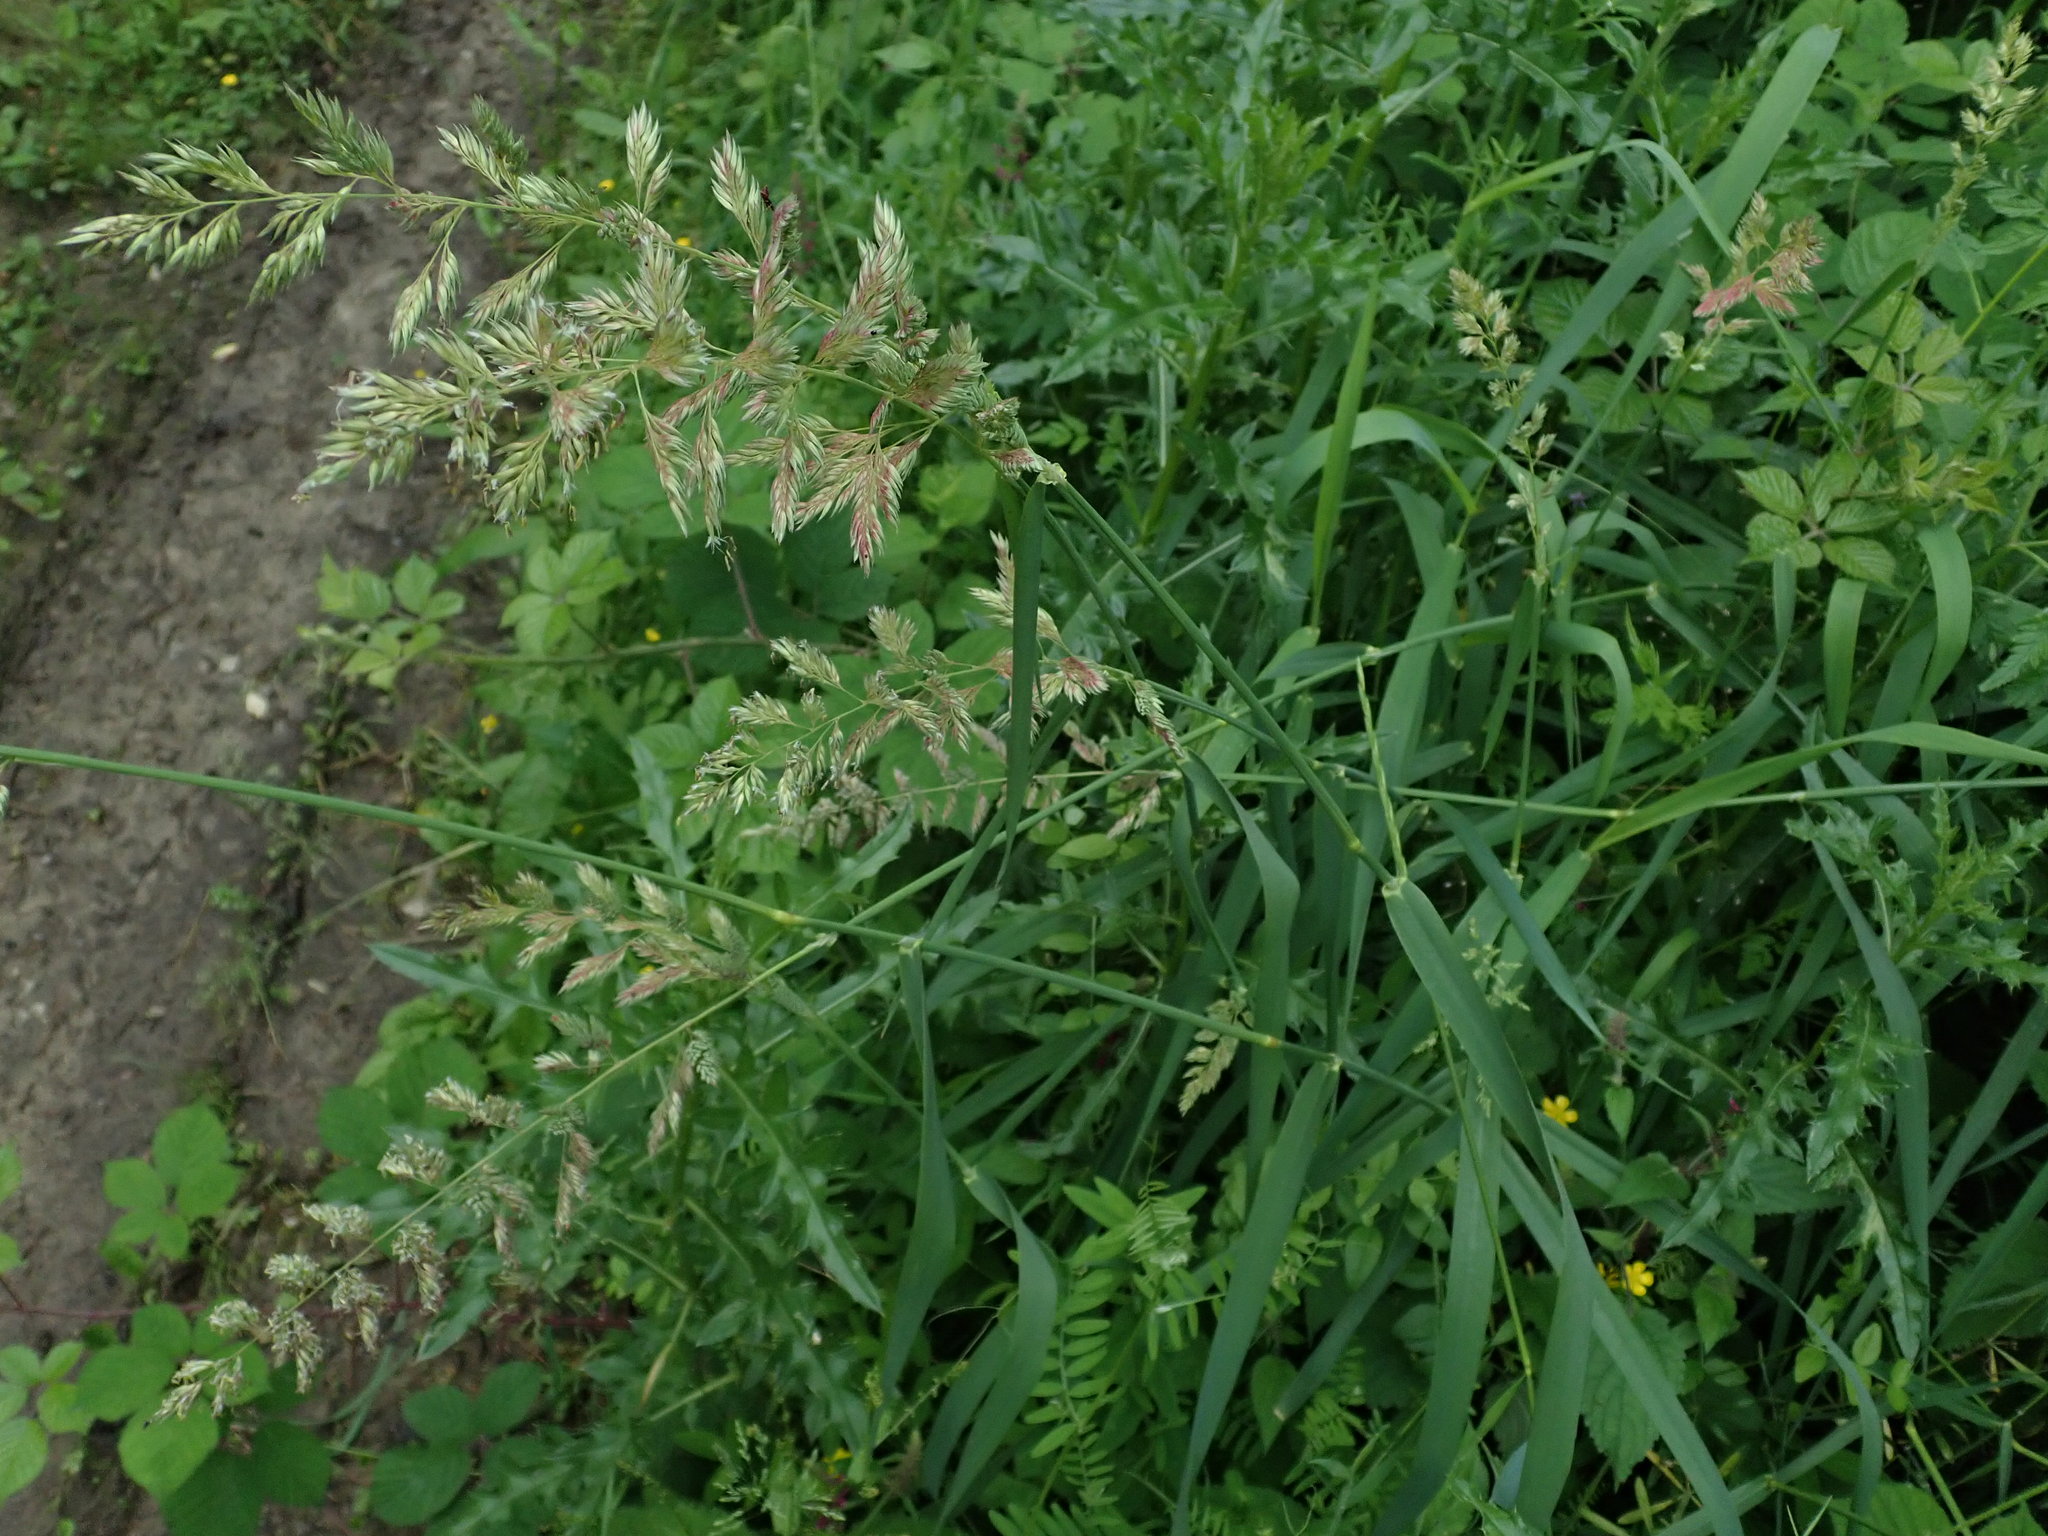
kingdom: Plantae
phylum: Tracheophyta
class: Liliopsida
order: Poales
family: Poaceae
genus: Phalaris
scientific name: Phalaris arundinacea
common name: Reed canary-grass
